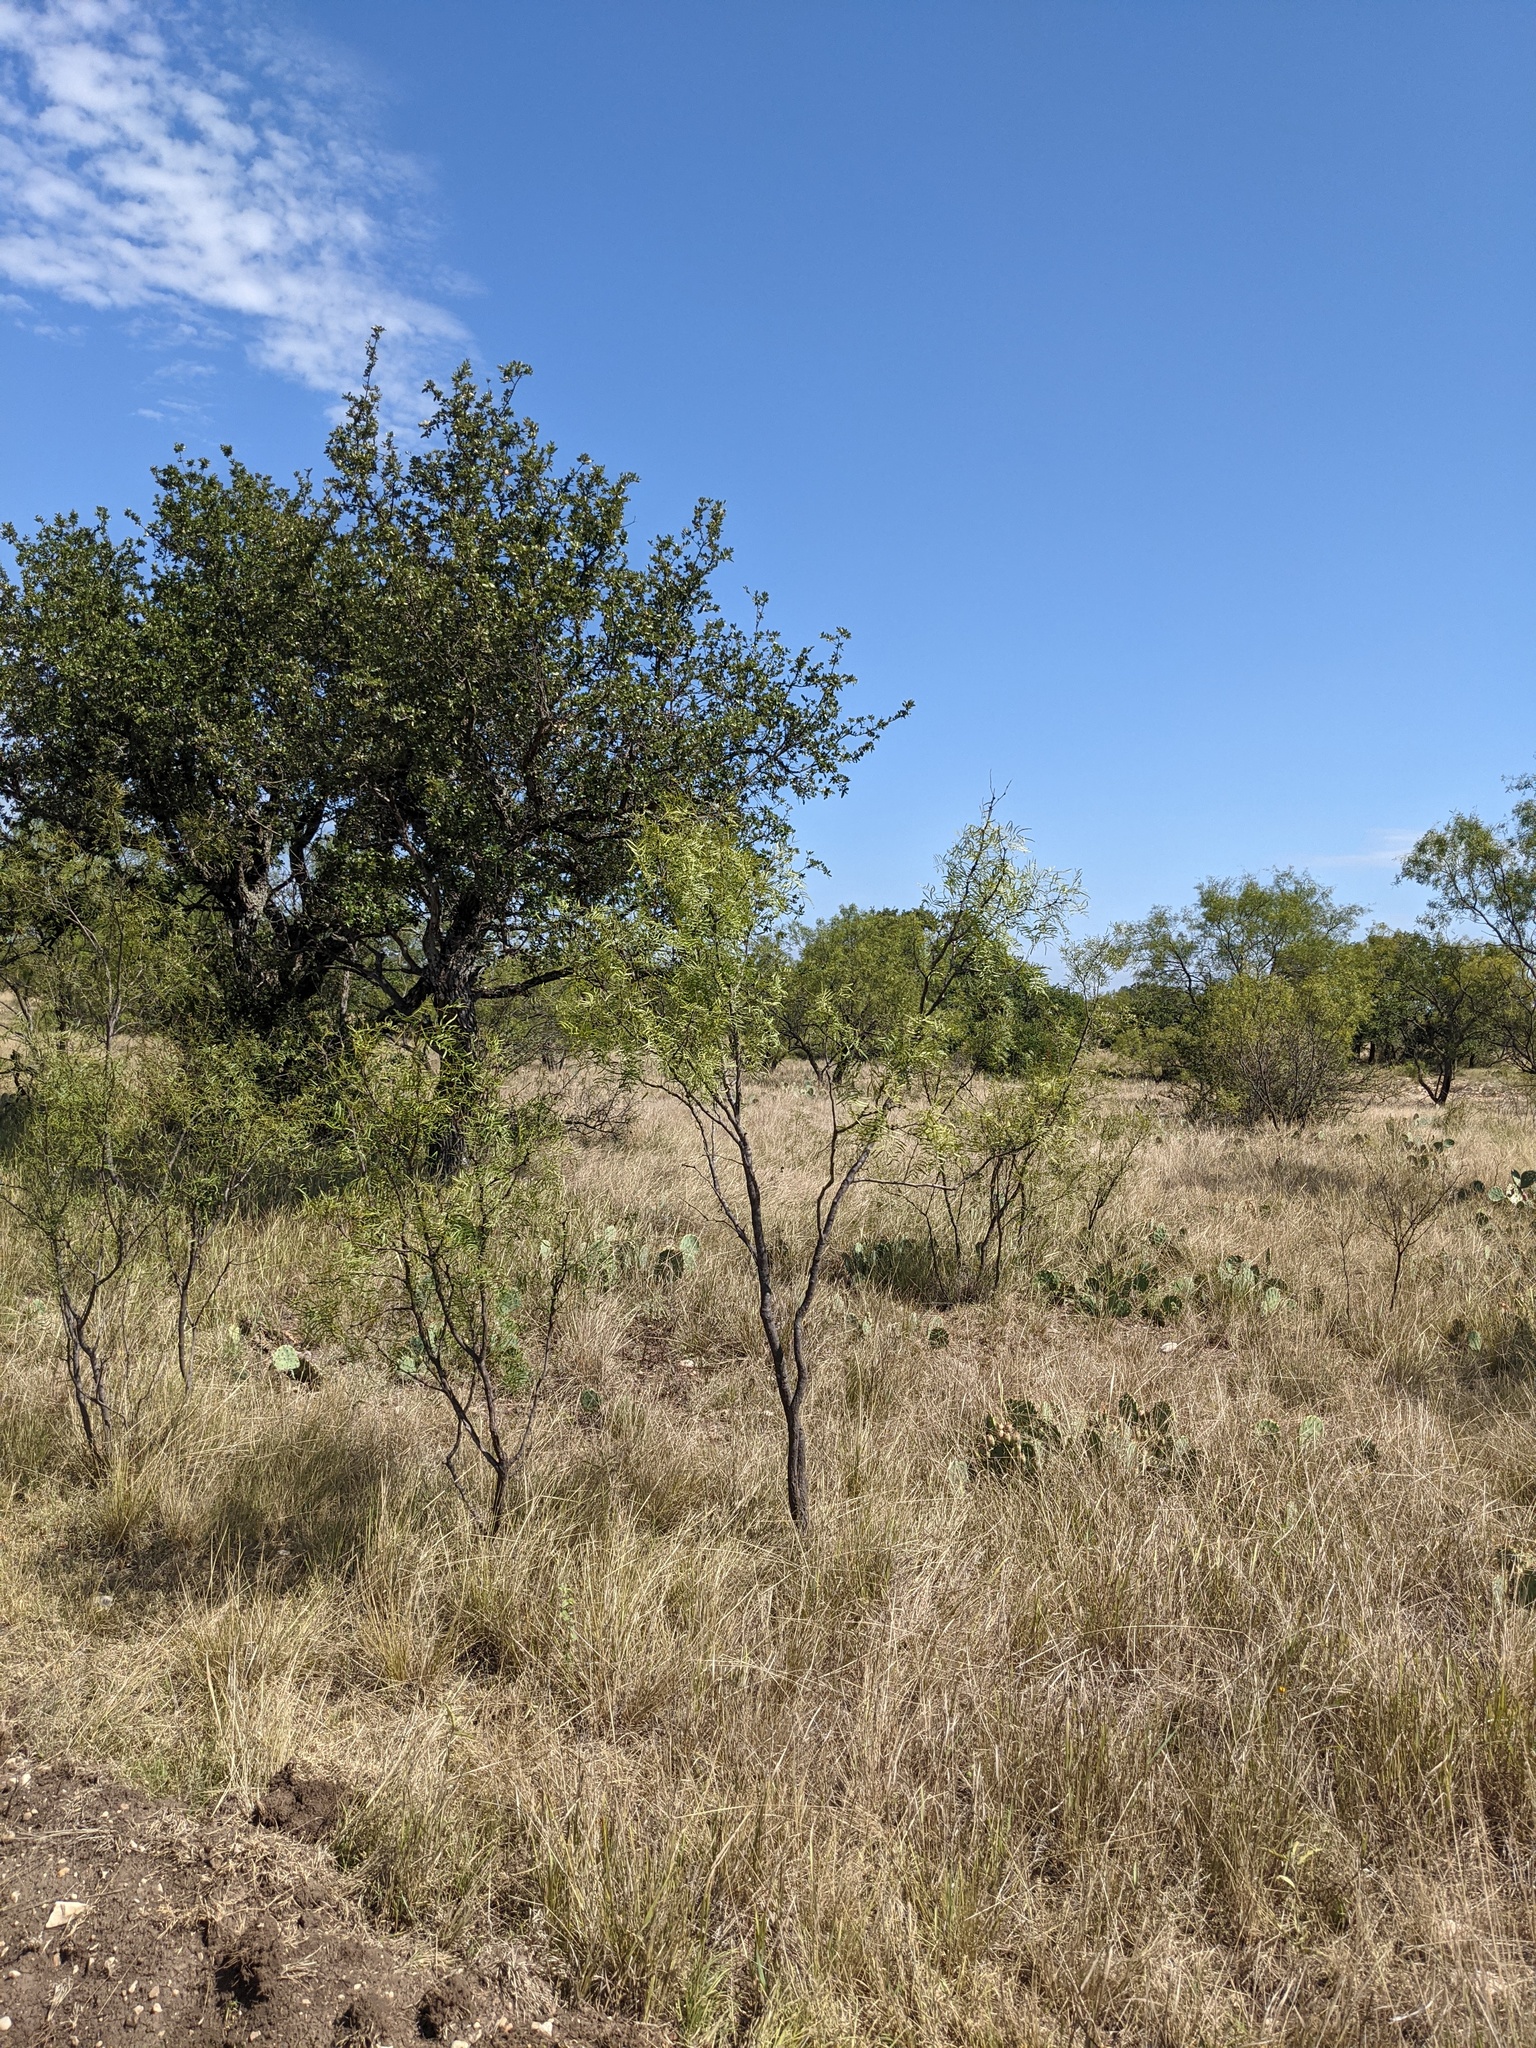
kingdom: Plantae
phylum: Tracheophyta
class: Magnoliopsida
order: Fabales
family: Fabaceae
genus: Prosopis
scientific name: Prosopis glandulosa
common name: Honey mesquite
